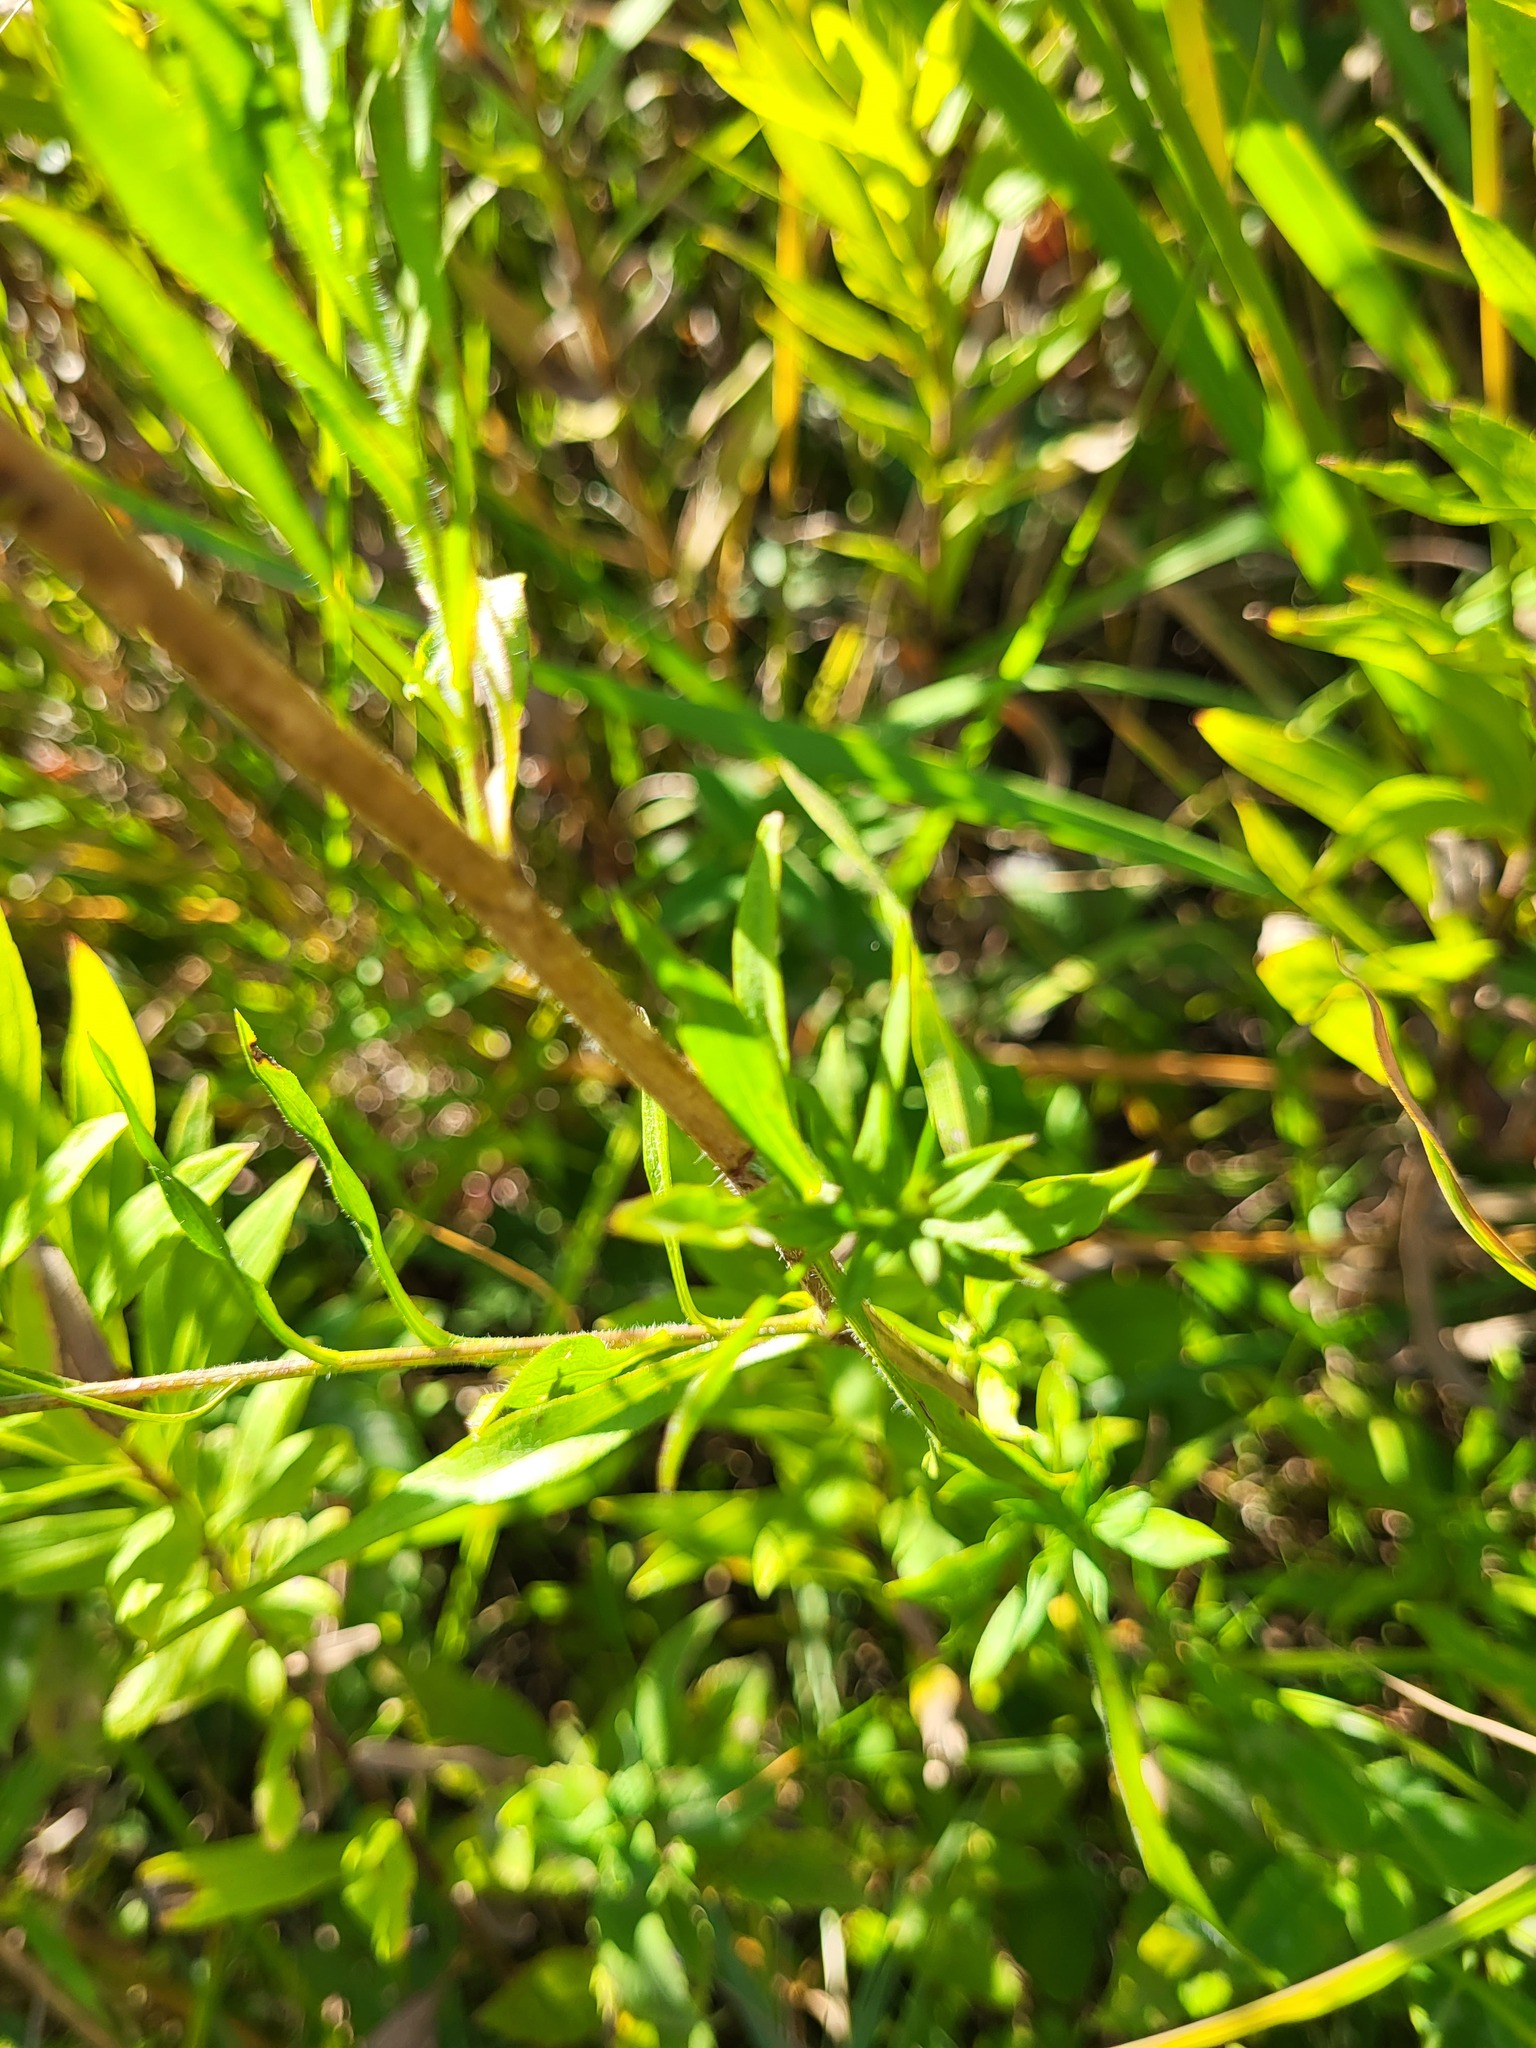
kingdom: Plantae
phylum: Tracheophyta
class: Magnoliopsida
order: Asterales
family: Asteraceae
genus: Symphyotrichum
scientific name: Symphyotrichum pilosum
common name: Awl aster
